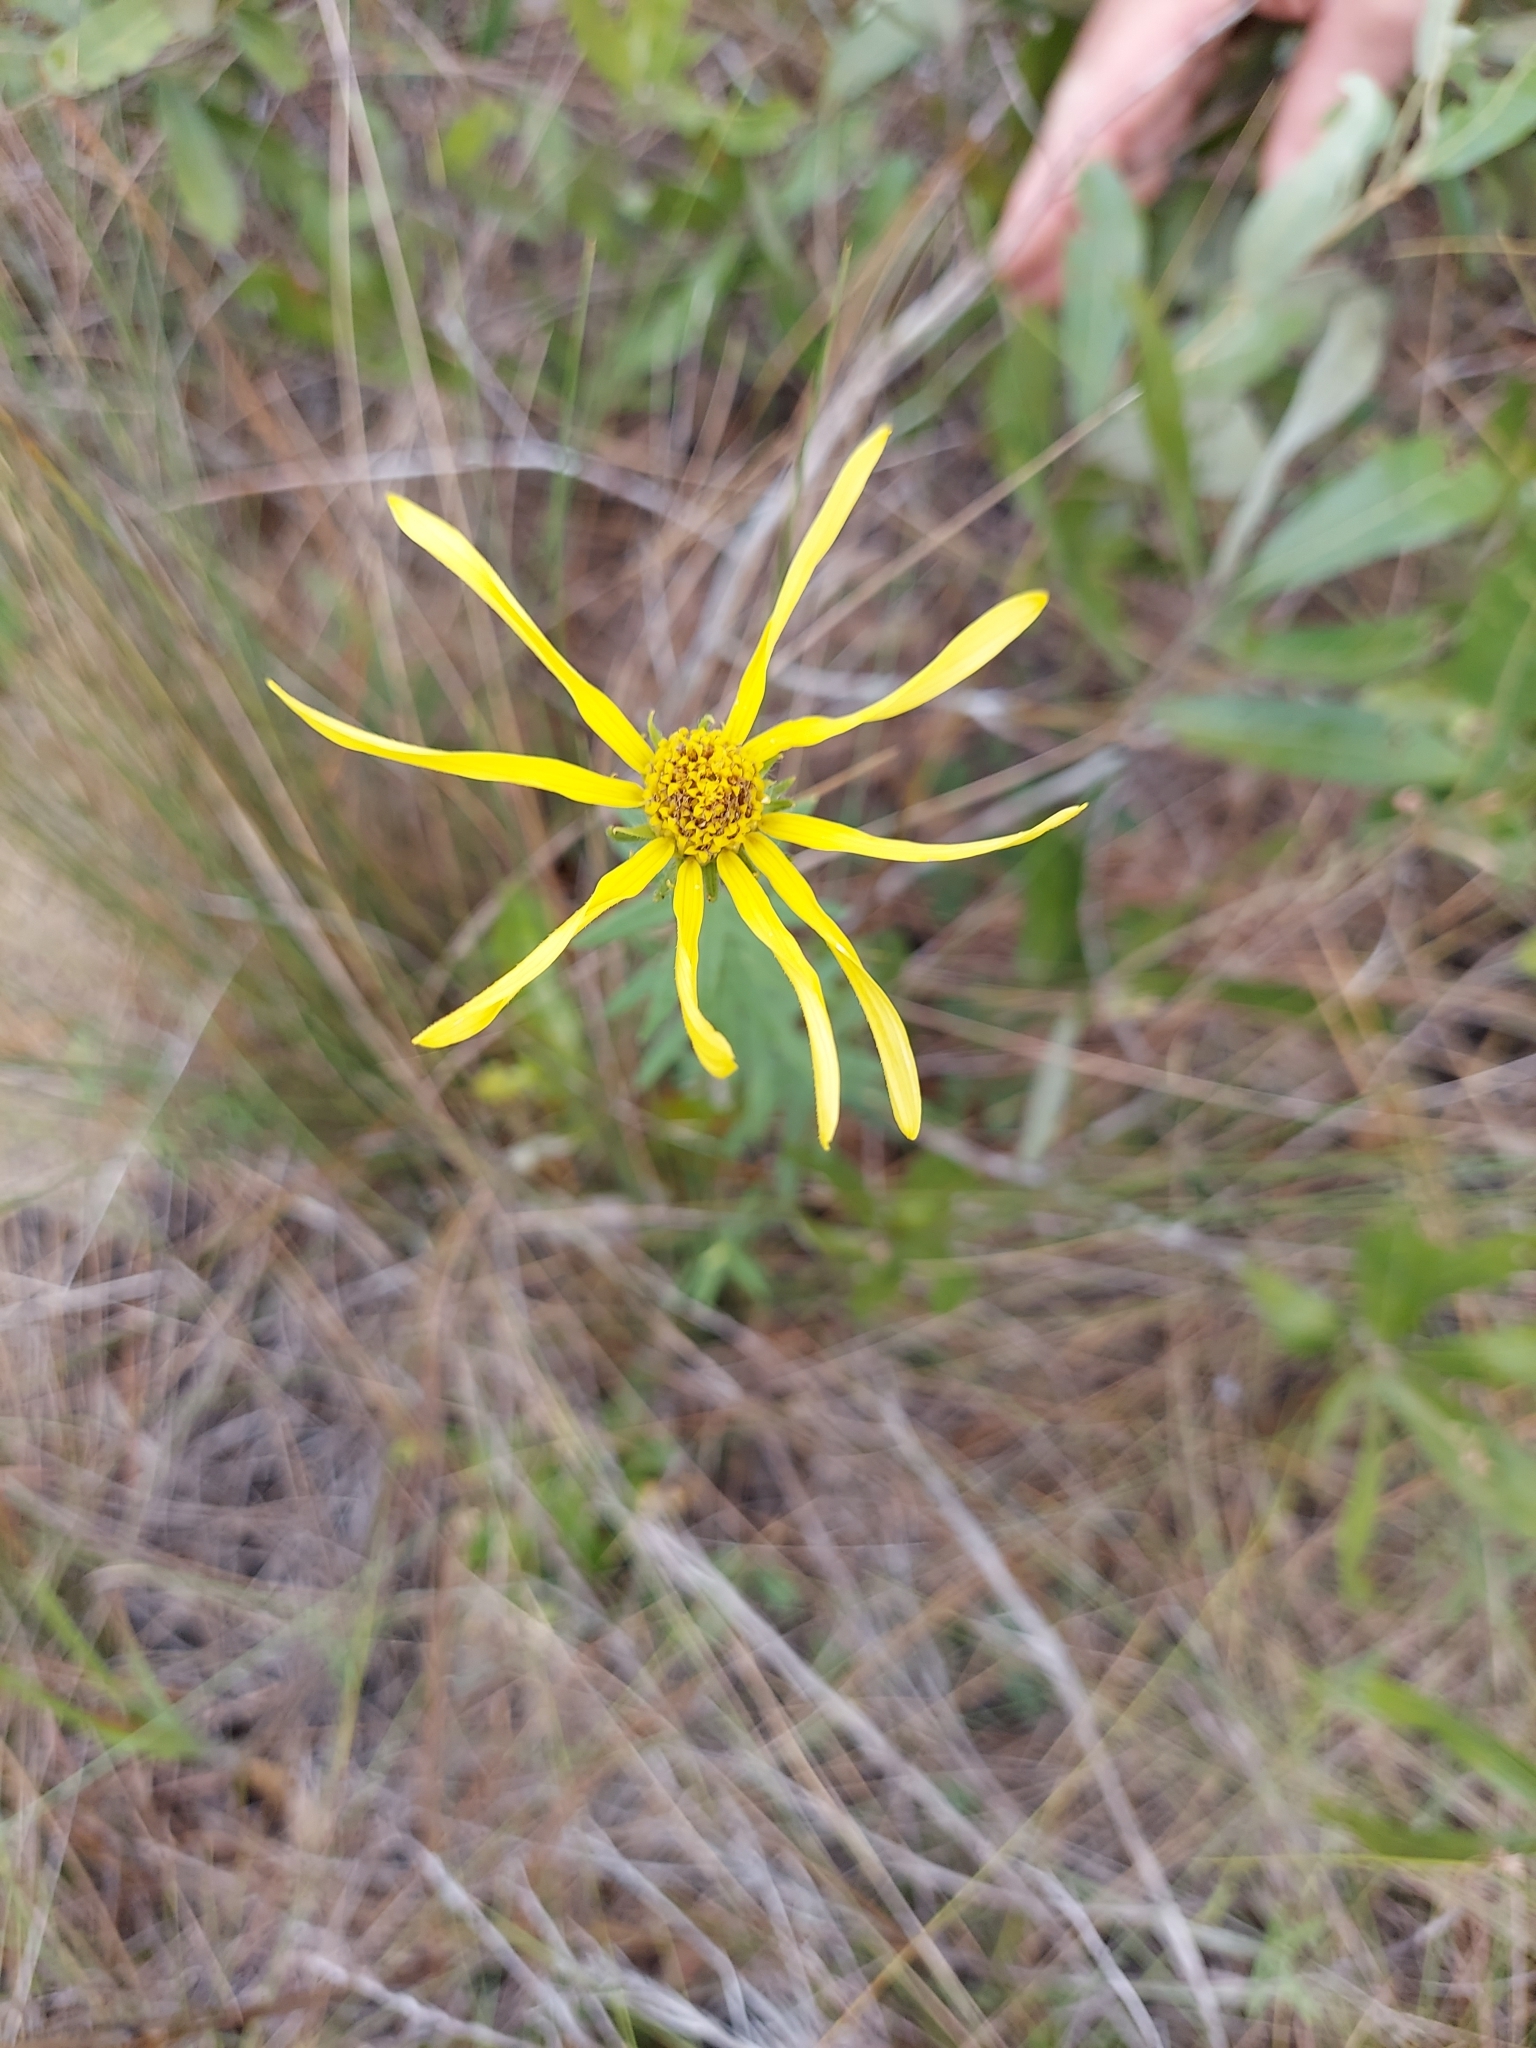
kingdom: Plantae
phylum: Tracheophyta
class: Magnoliopsida
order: Asterales
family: Asteraceae
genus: Phoebanthus
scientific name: Phoebanthus grandiflora
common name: Florida false sunflower
